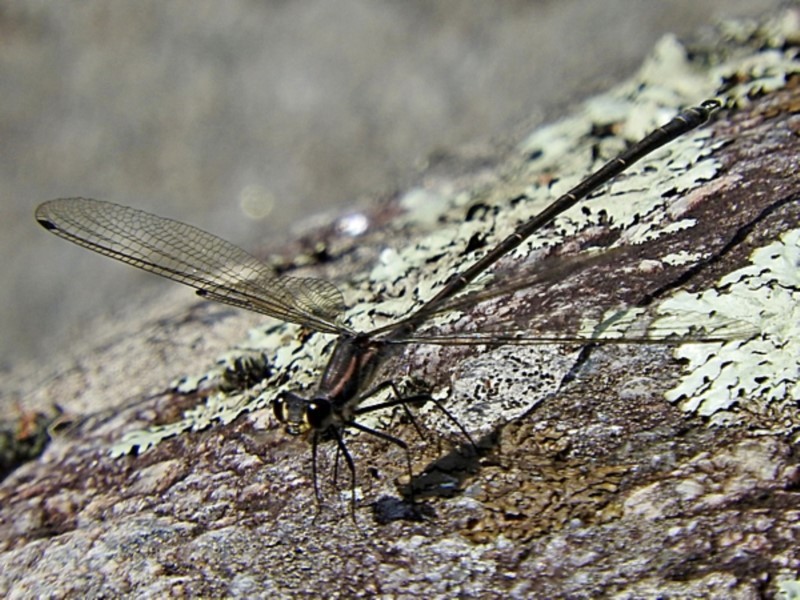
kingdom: Animalia
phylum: Arthropoda
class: Insecta
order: Odonata
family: Argiolestidae
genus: Austroargiolestes
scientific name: Austroargiolestes icteromelas
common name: Common flatwing
